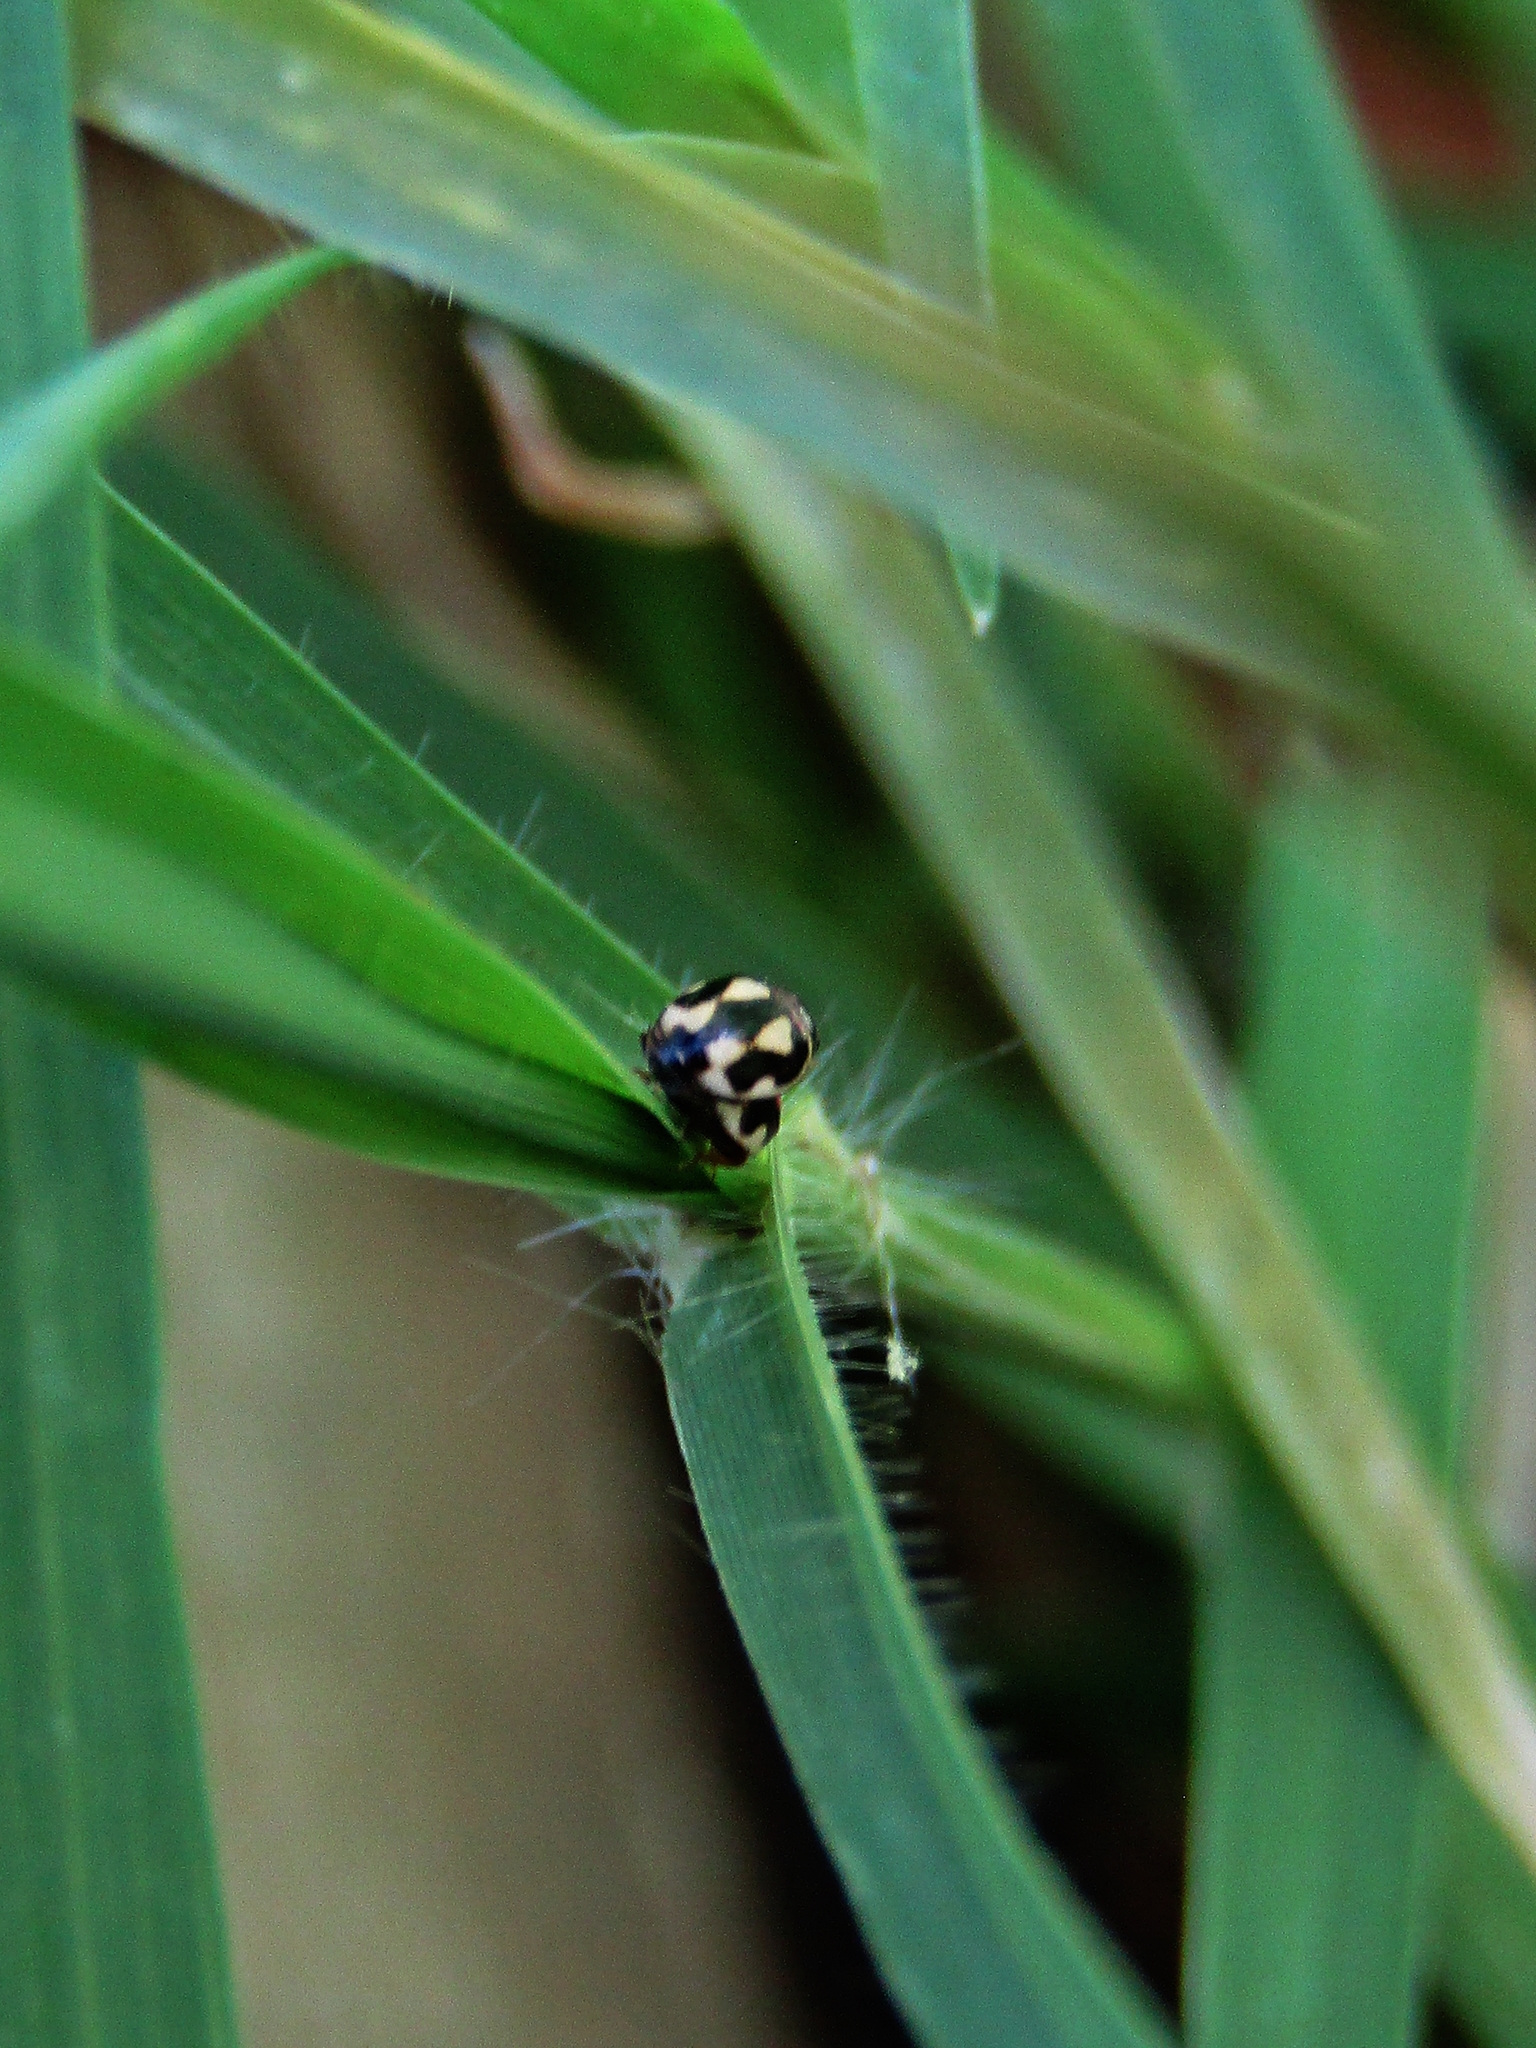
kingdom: Animalia
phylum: Arthropoda
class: Insecta
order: Coleoptera
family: Coccinellidae
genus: Hyperaspis
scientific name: Hyperaspis festiva
